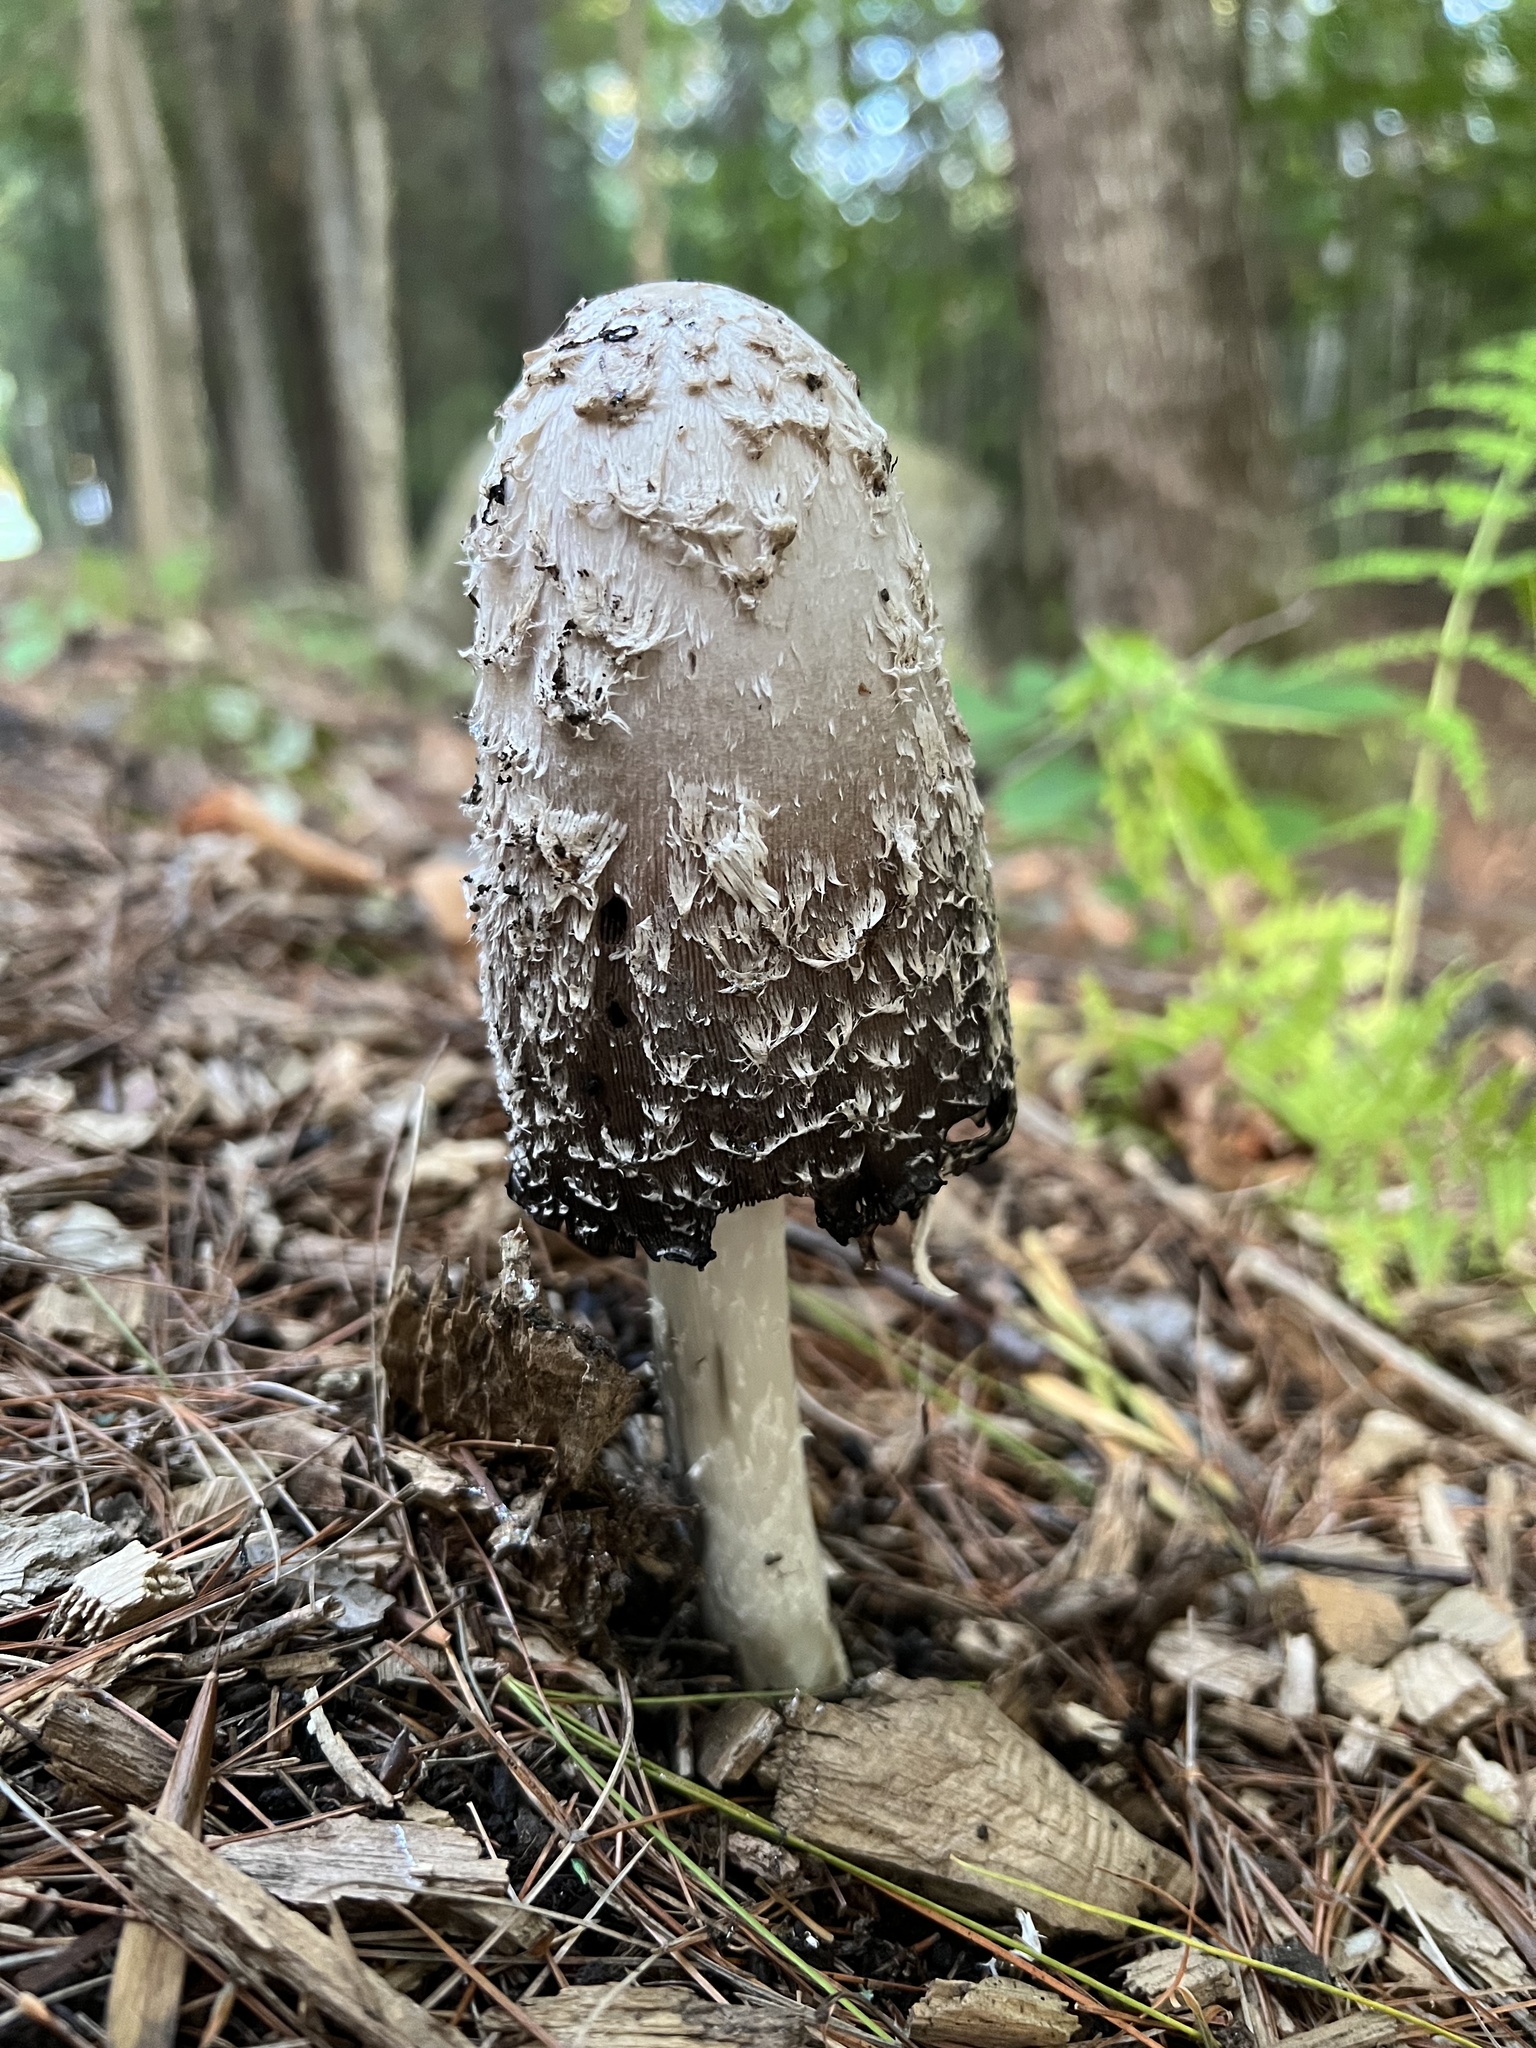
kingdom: Fungi
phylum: Basidiomycota
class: Agaricomycetes
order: Agaricales
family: Agaricaceae
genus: Coprinus
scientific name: Coprinus comatus
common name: Lawyer's wig
